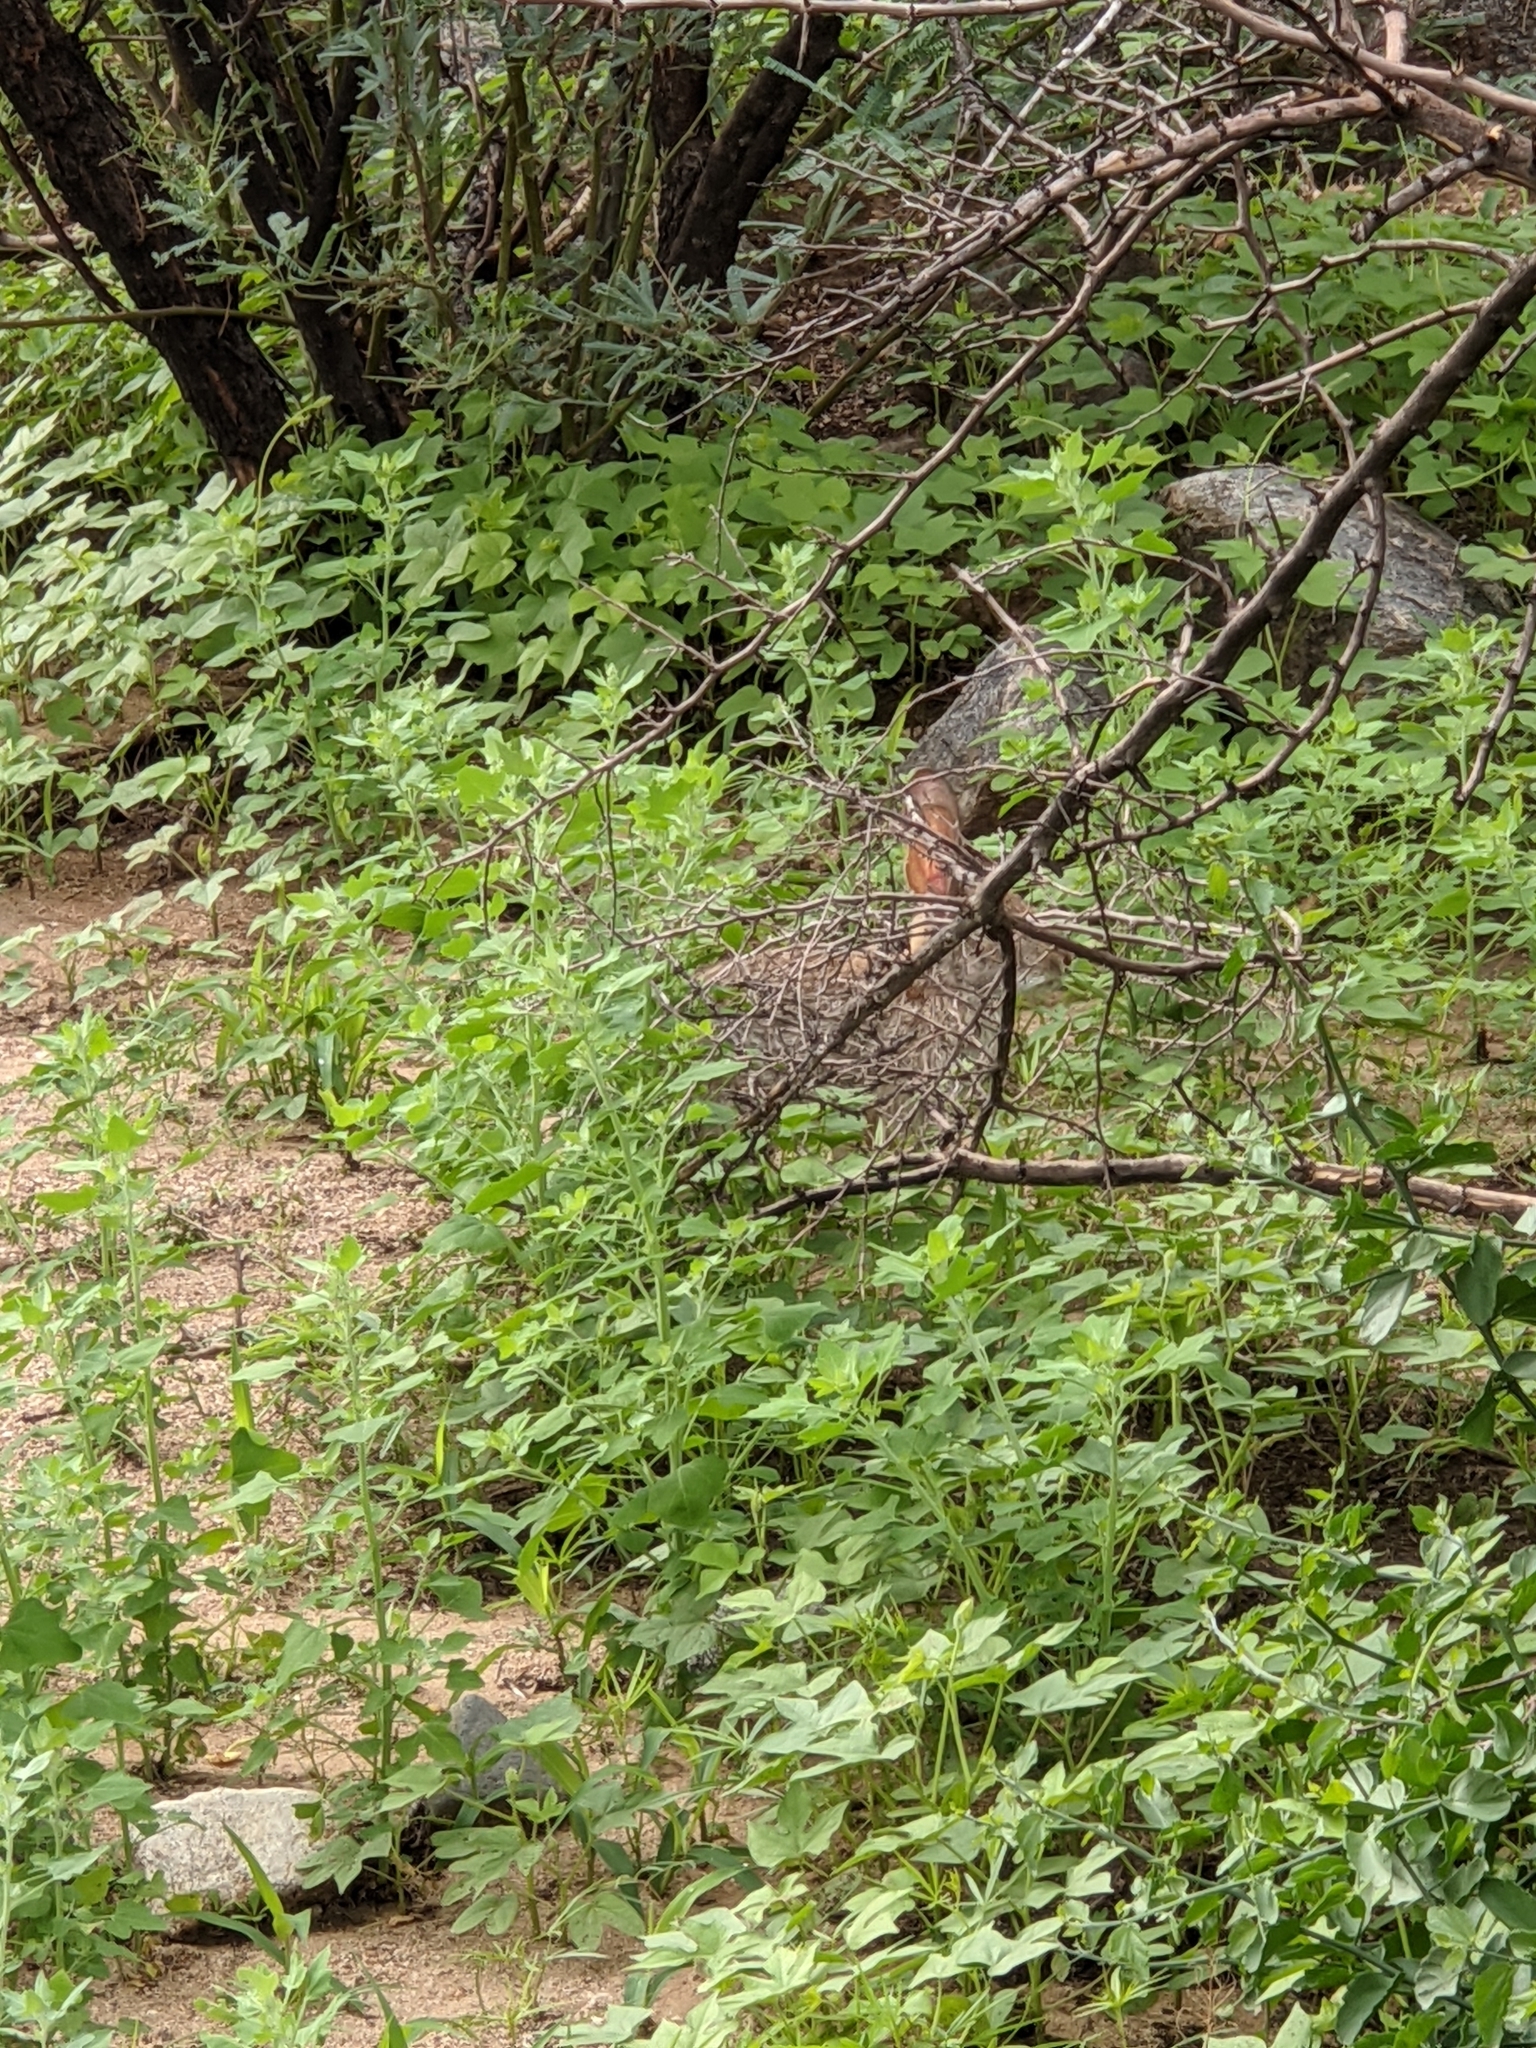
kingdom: Animalia
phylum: Chordata
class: Mammalia
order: Lagomorpha
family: Leporidae
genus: Sylvilagus
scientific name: Sylvilagus audubonii
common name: Desert cottontail
